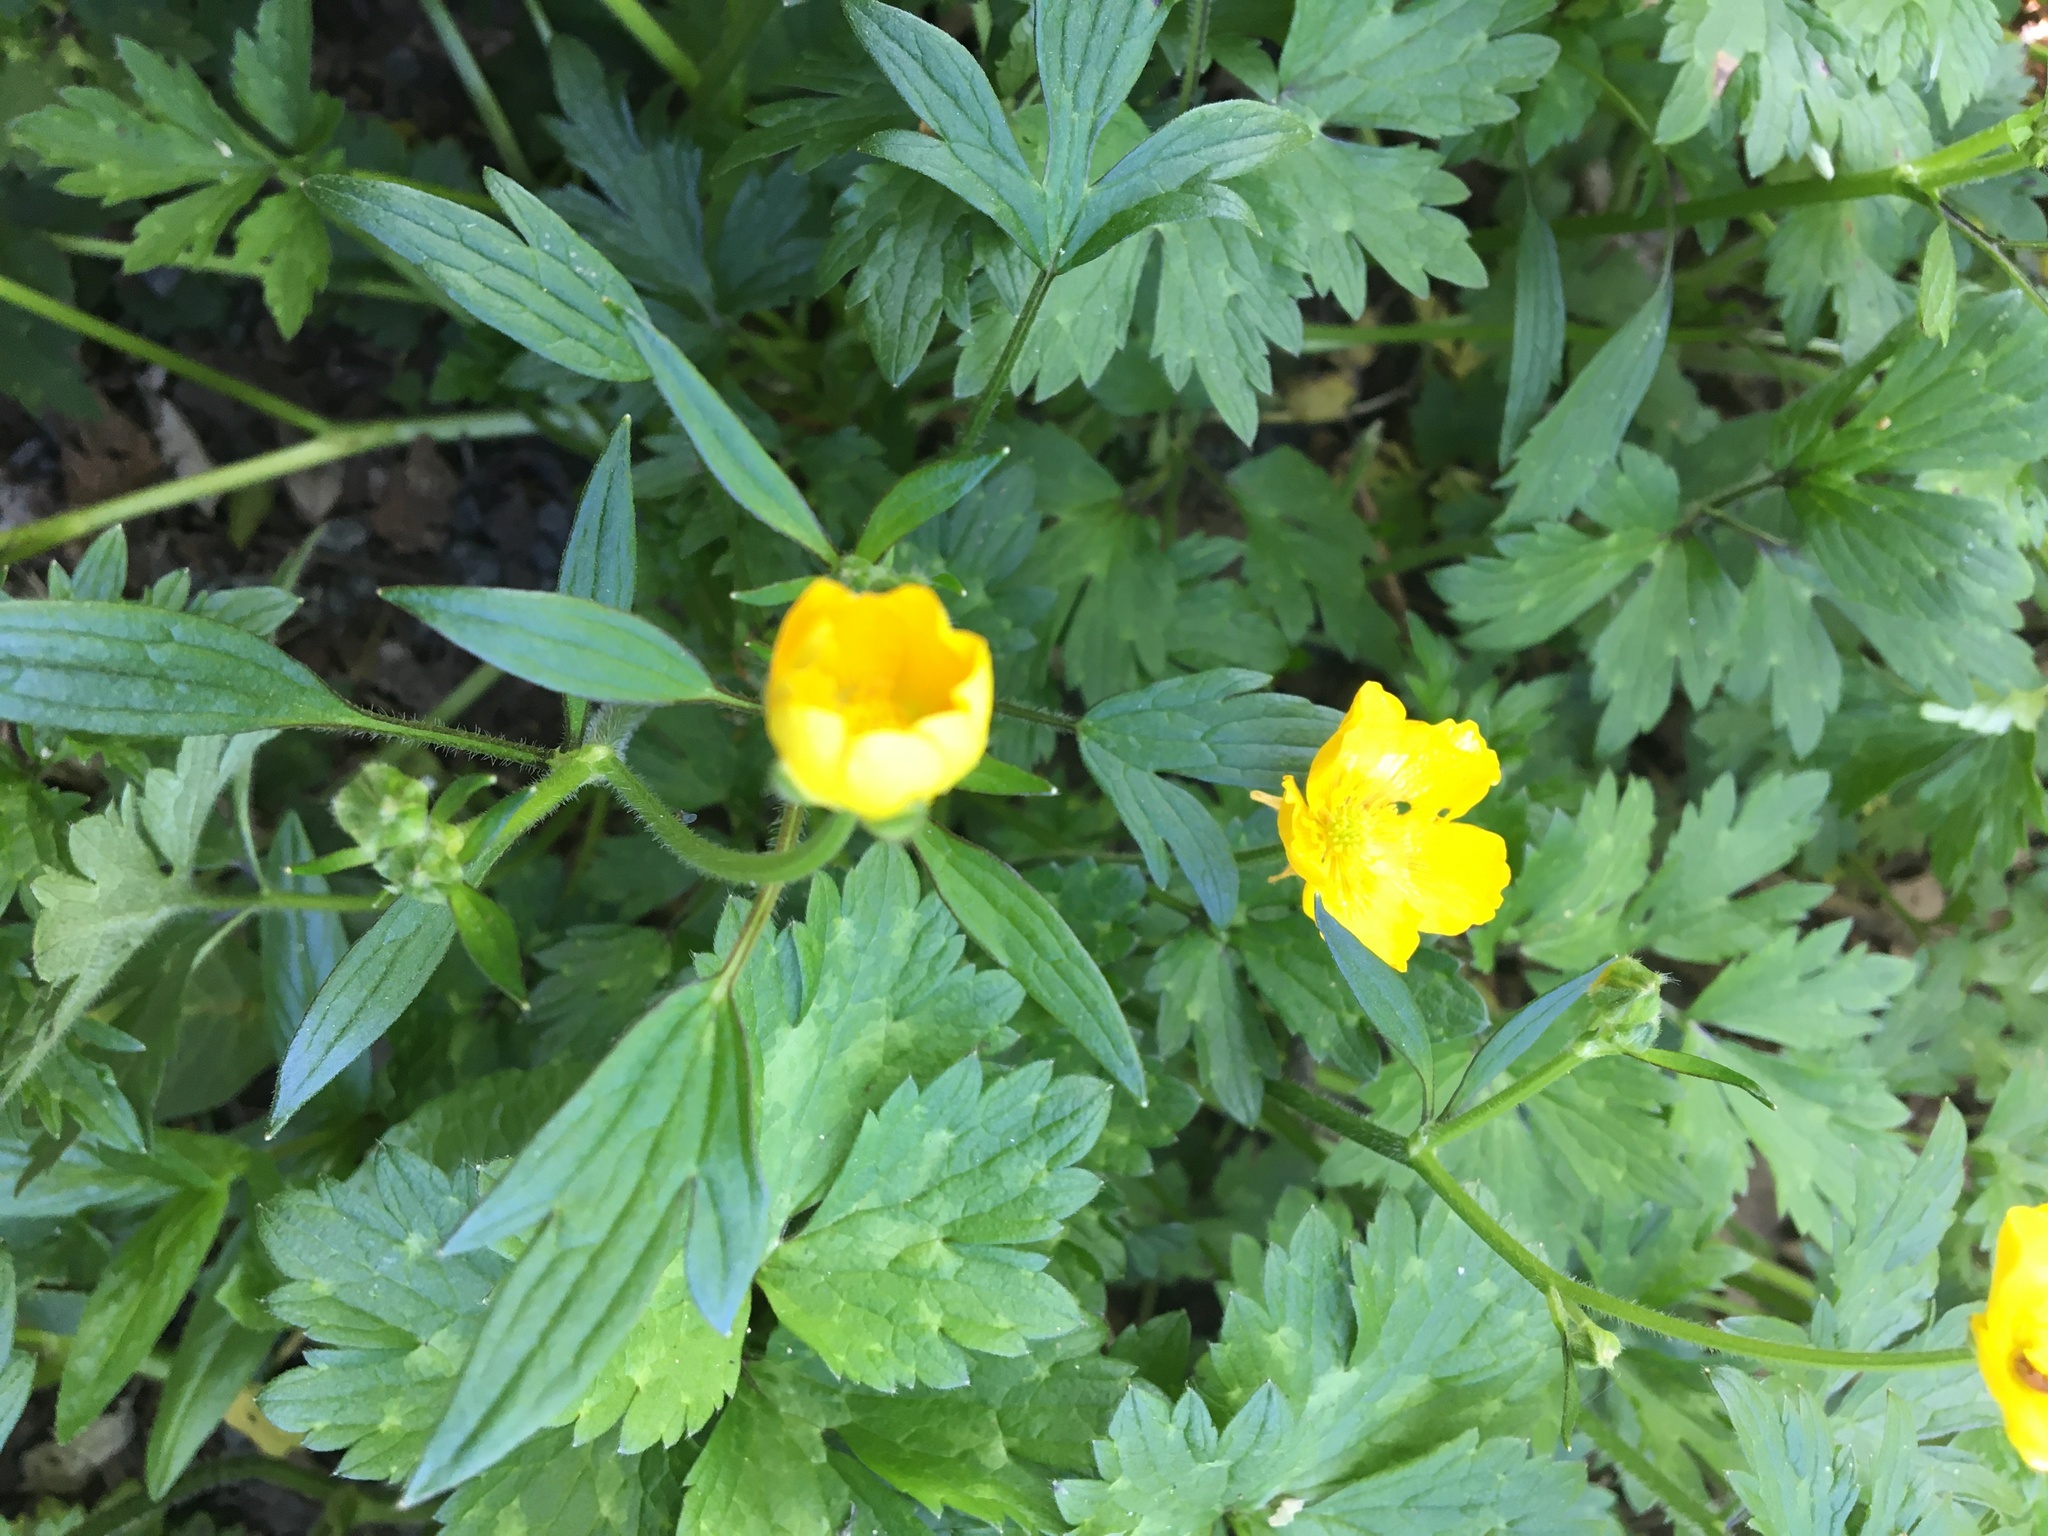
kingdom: Plantae
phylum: Tracheophyta
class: Magnoliopsida
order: Ranunculales
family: Ranunculaceae
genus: Ranunculus
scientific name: Ranunculus repens
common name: Creeping buttercup
